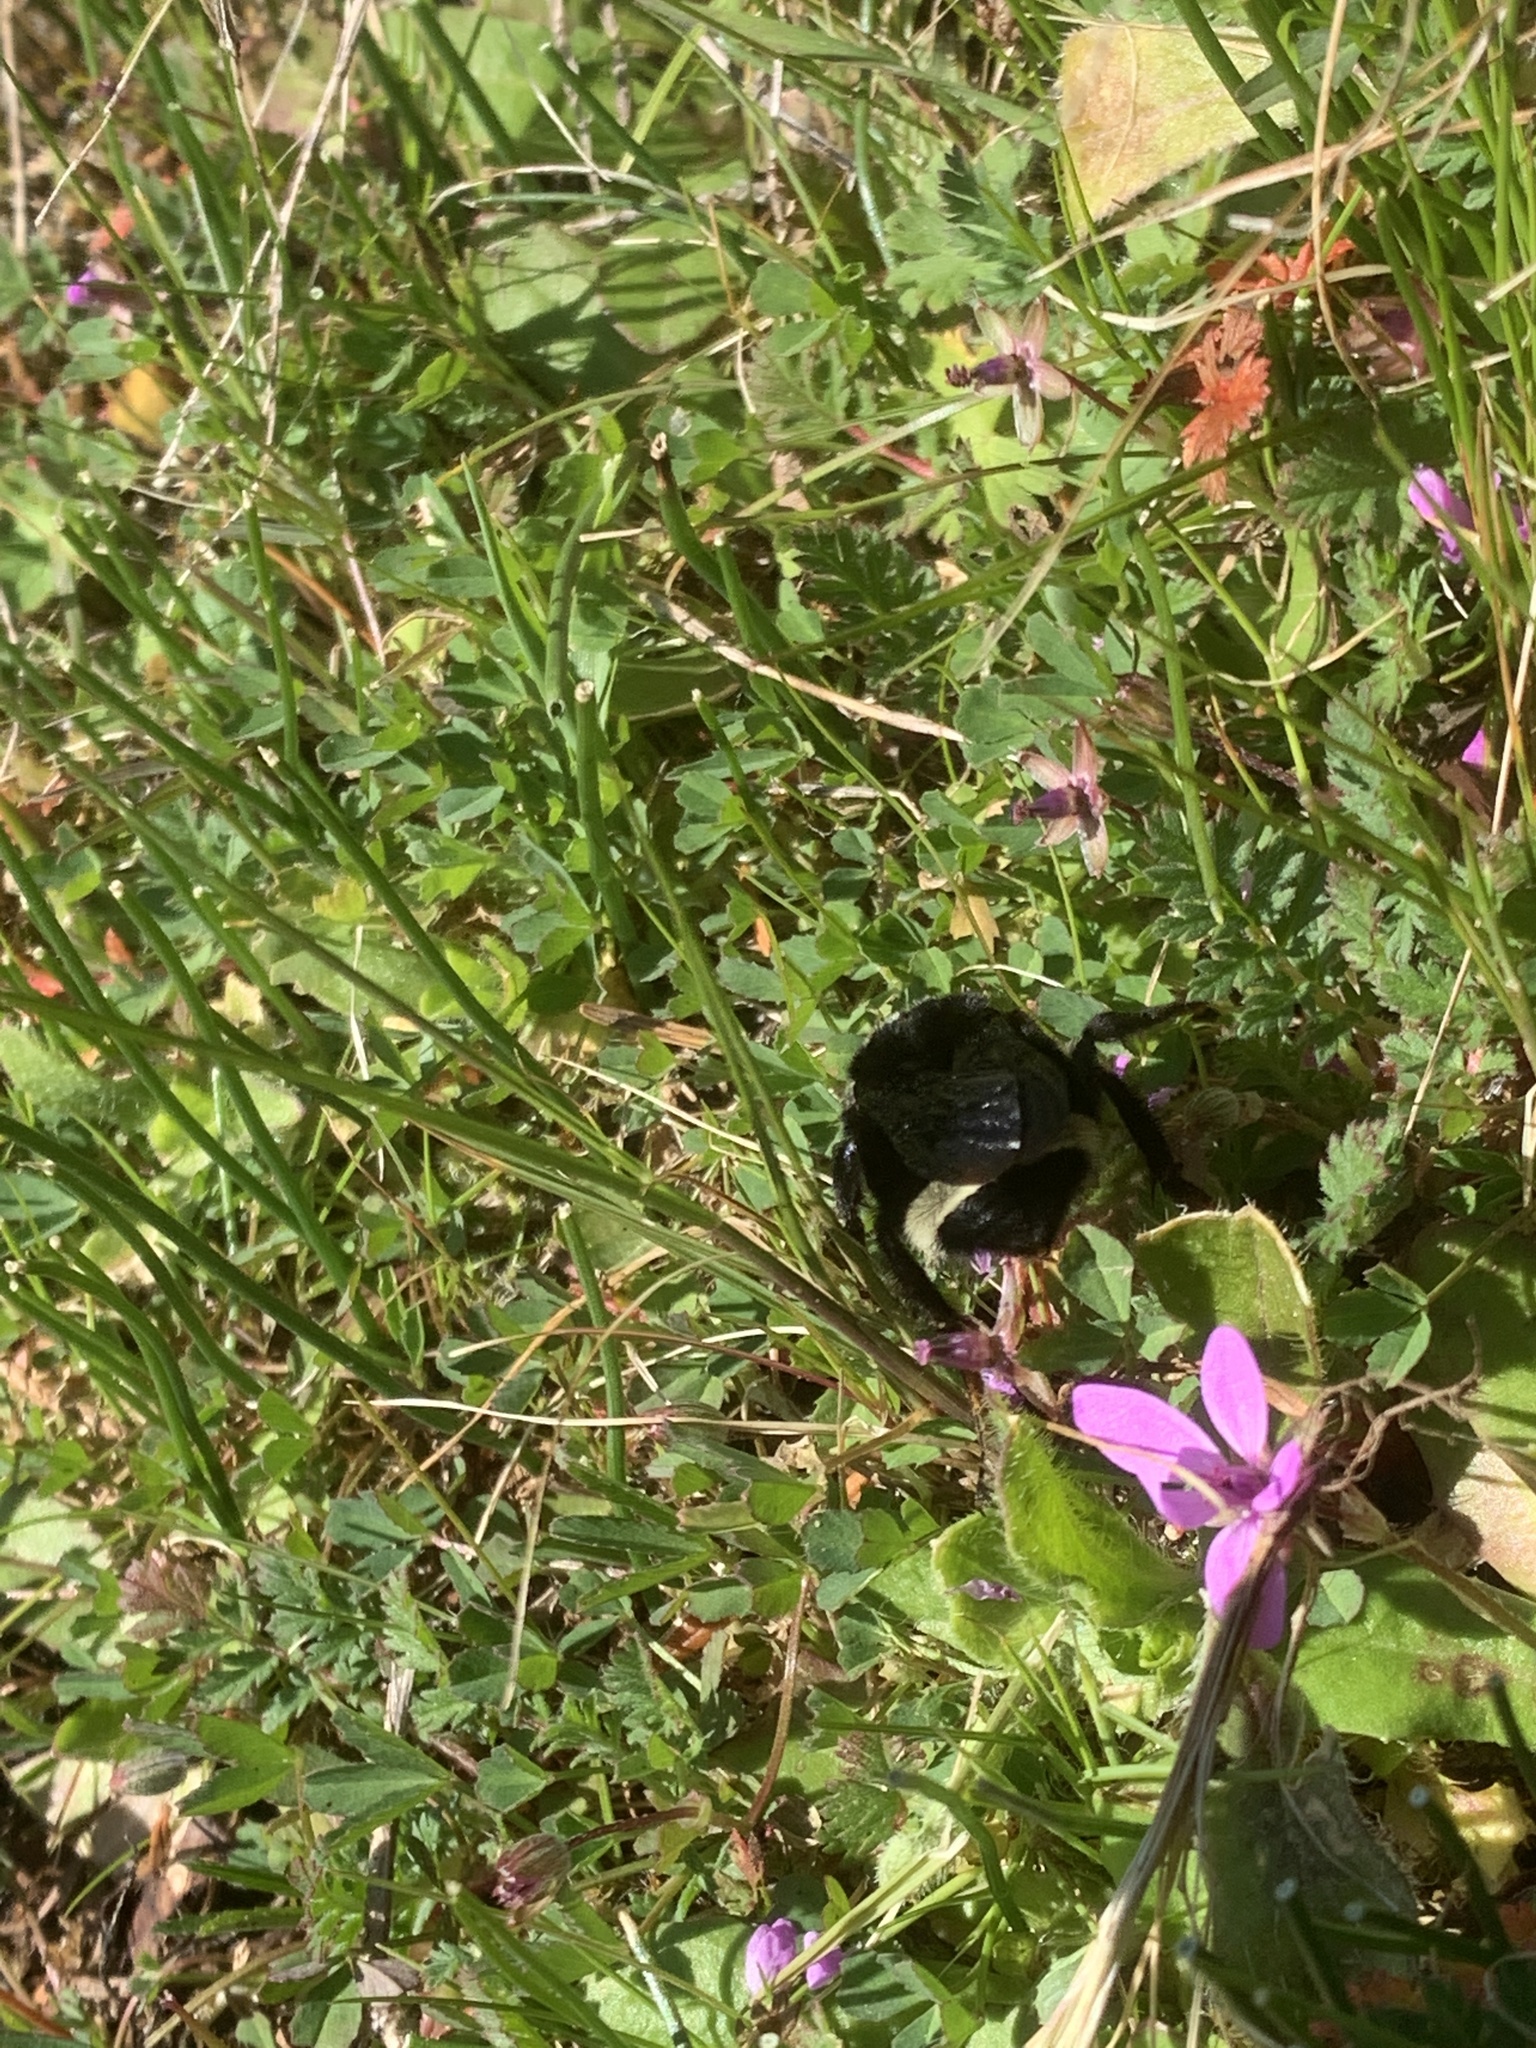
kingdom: Animalia
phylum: Arthropoda
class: Insecta
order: Hymenoptera
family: Apidae
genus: Bombus
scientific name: Bombus vosnesenskii
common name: Vosnesensky bumble bee
